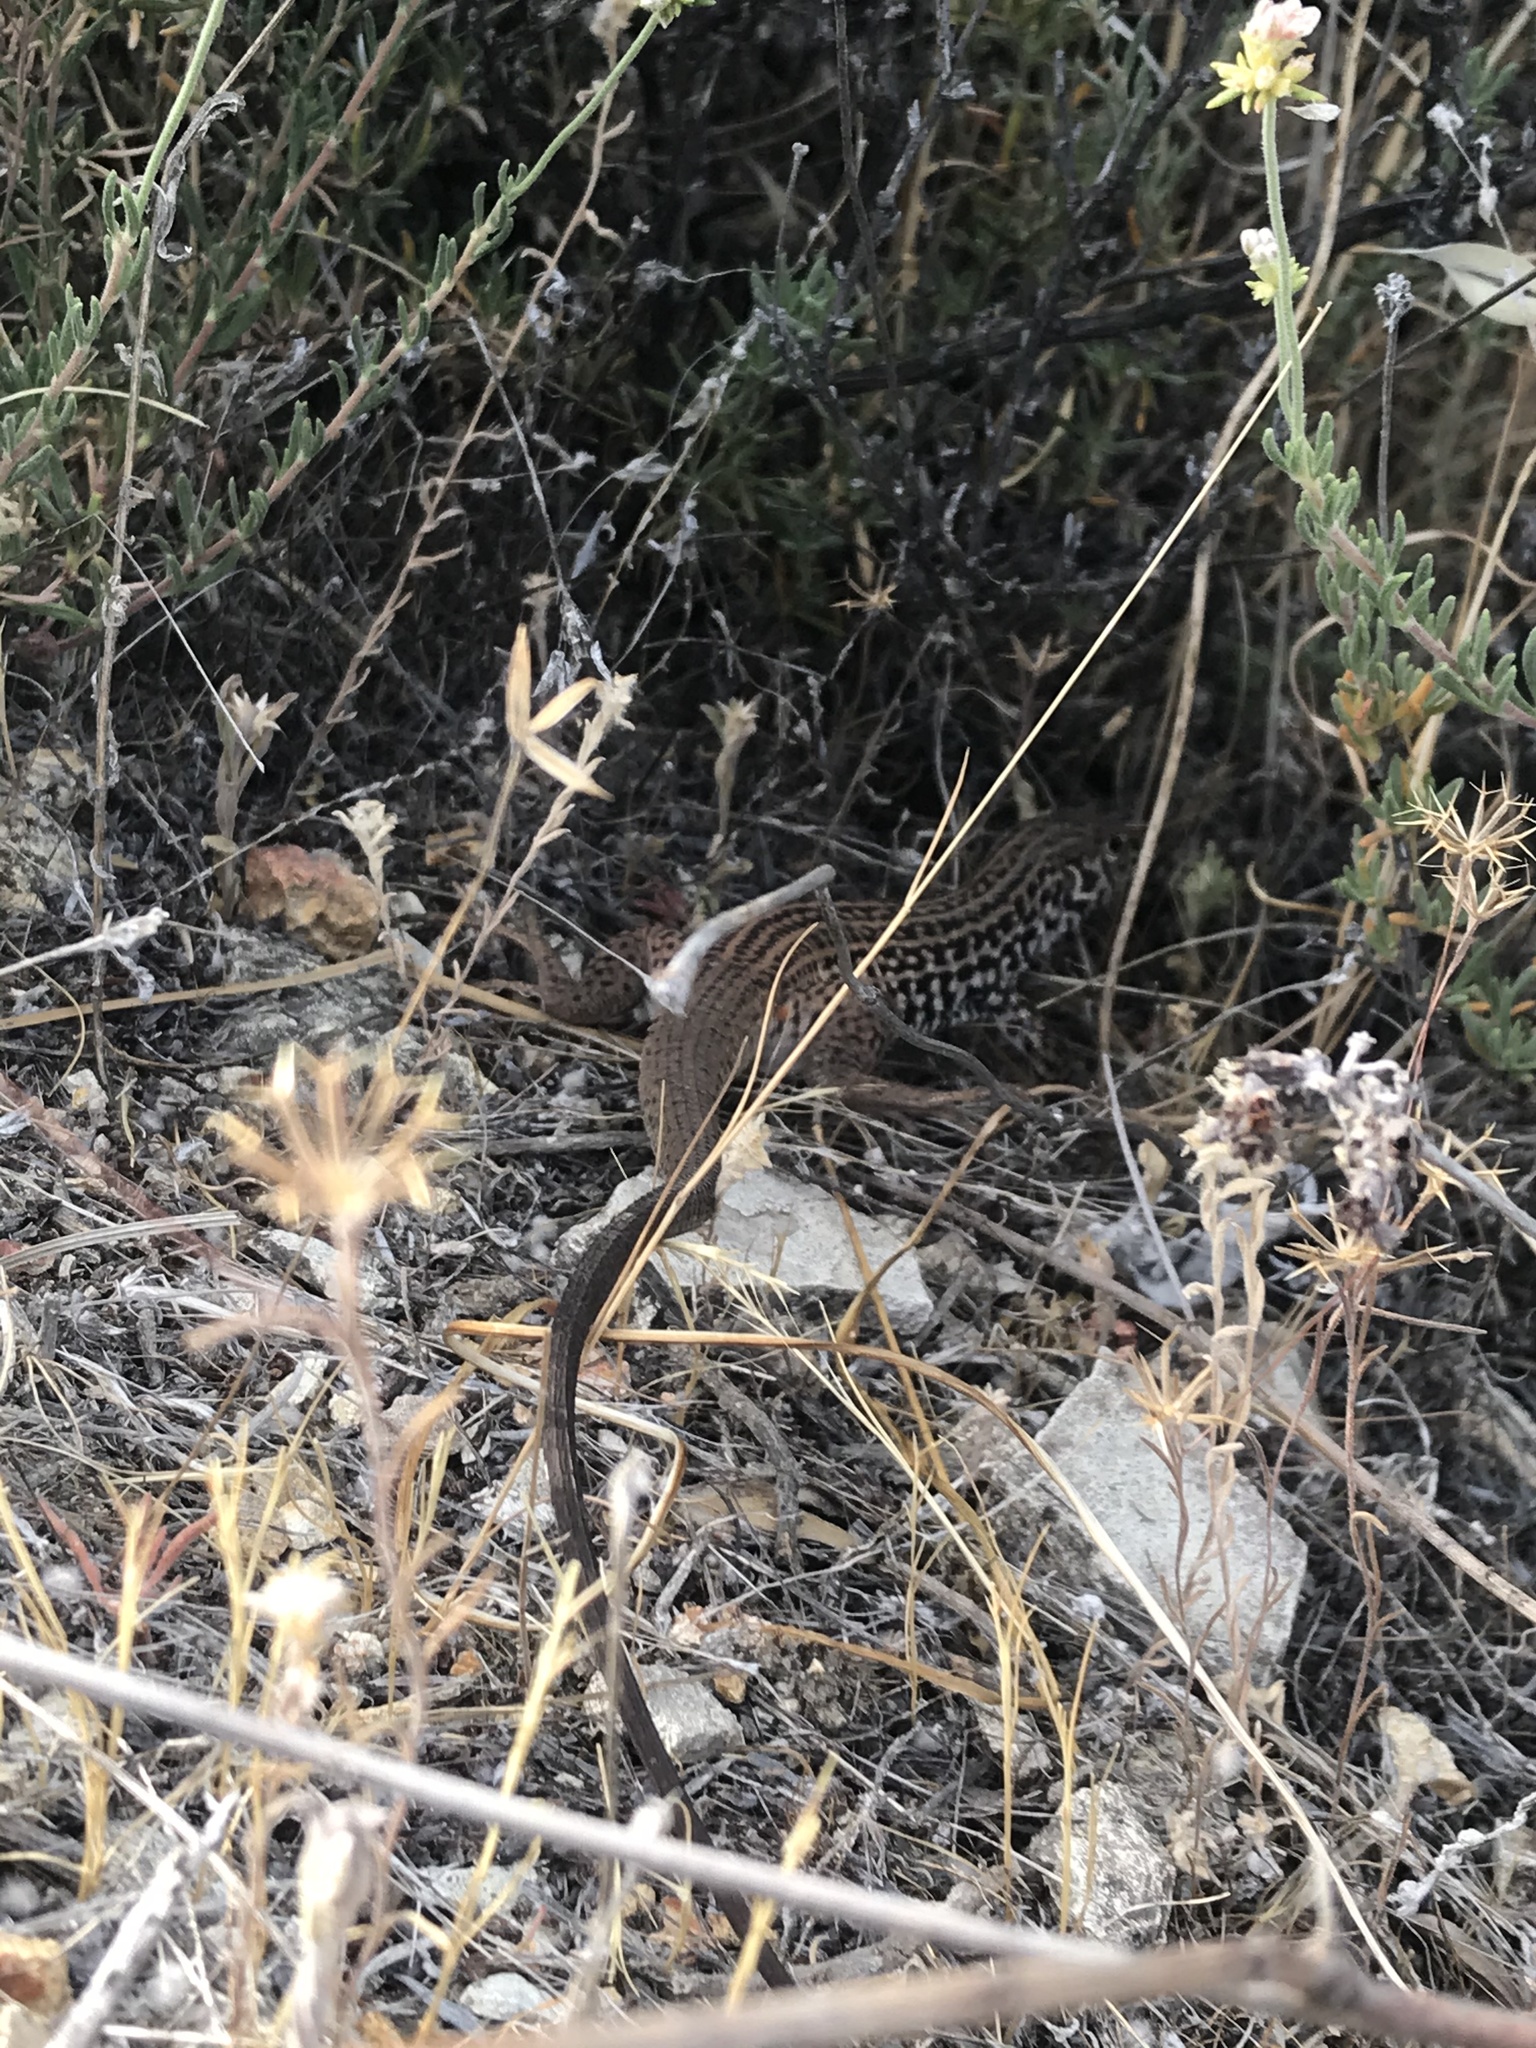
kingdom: Animalia
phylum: Chordata
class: Squamata
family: Teiidae
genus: Aspidoscelis
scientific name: Aspidoscelis tigris
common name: Tiger whiptail
